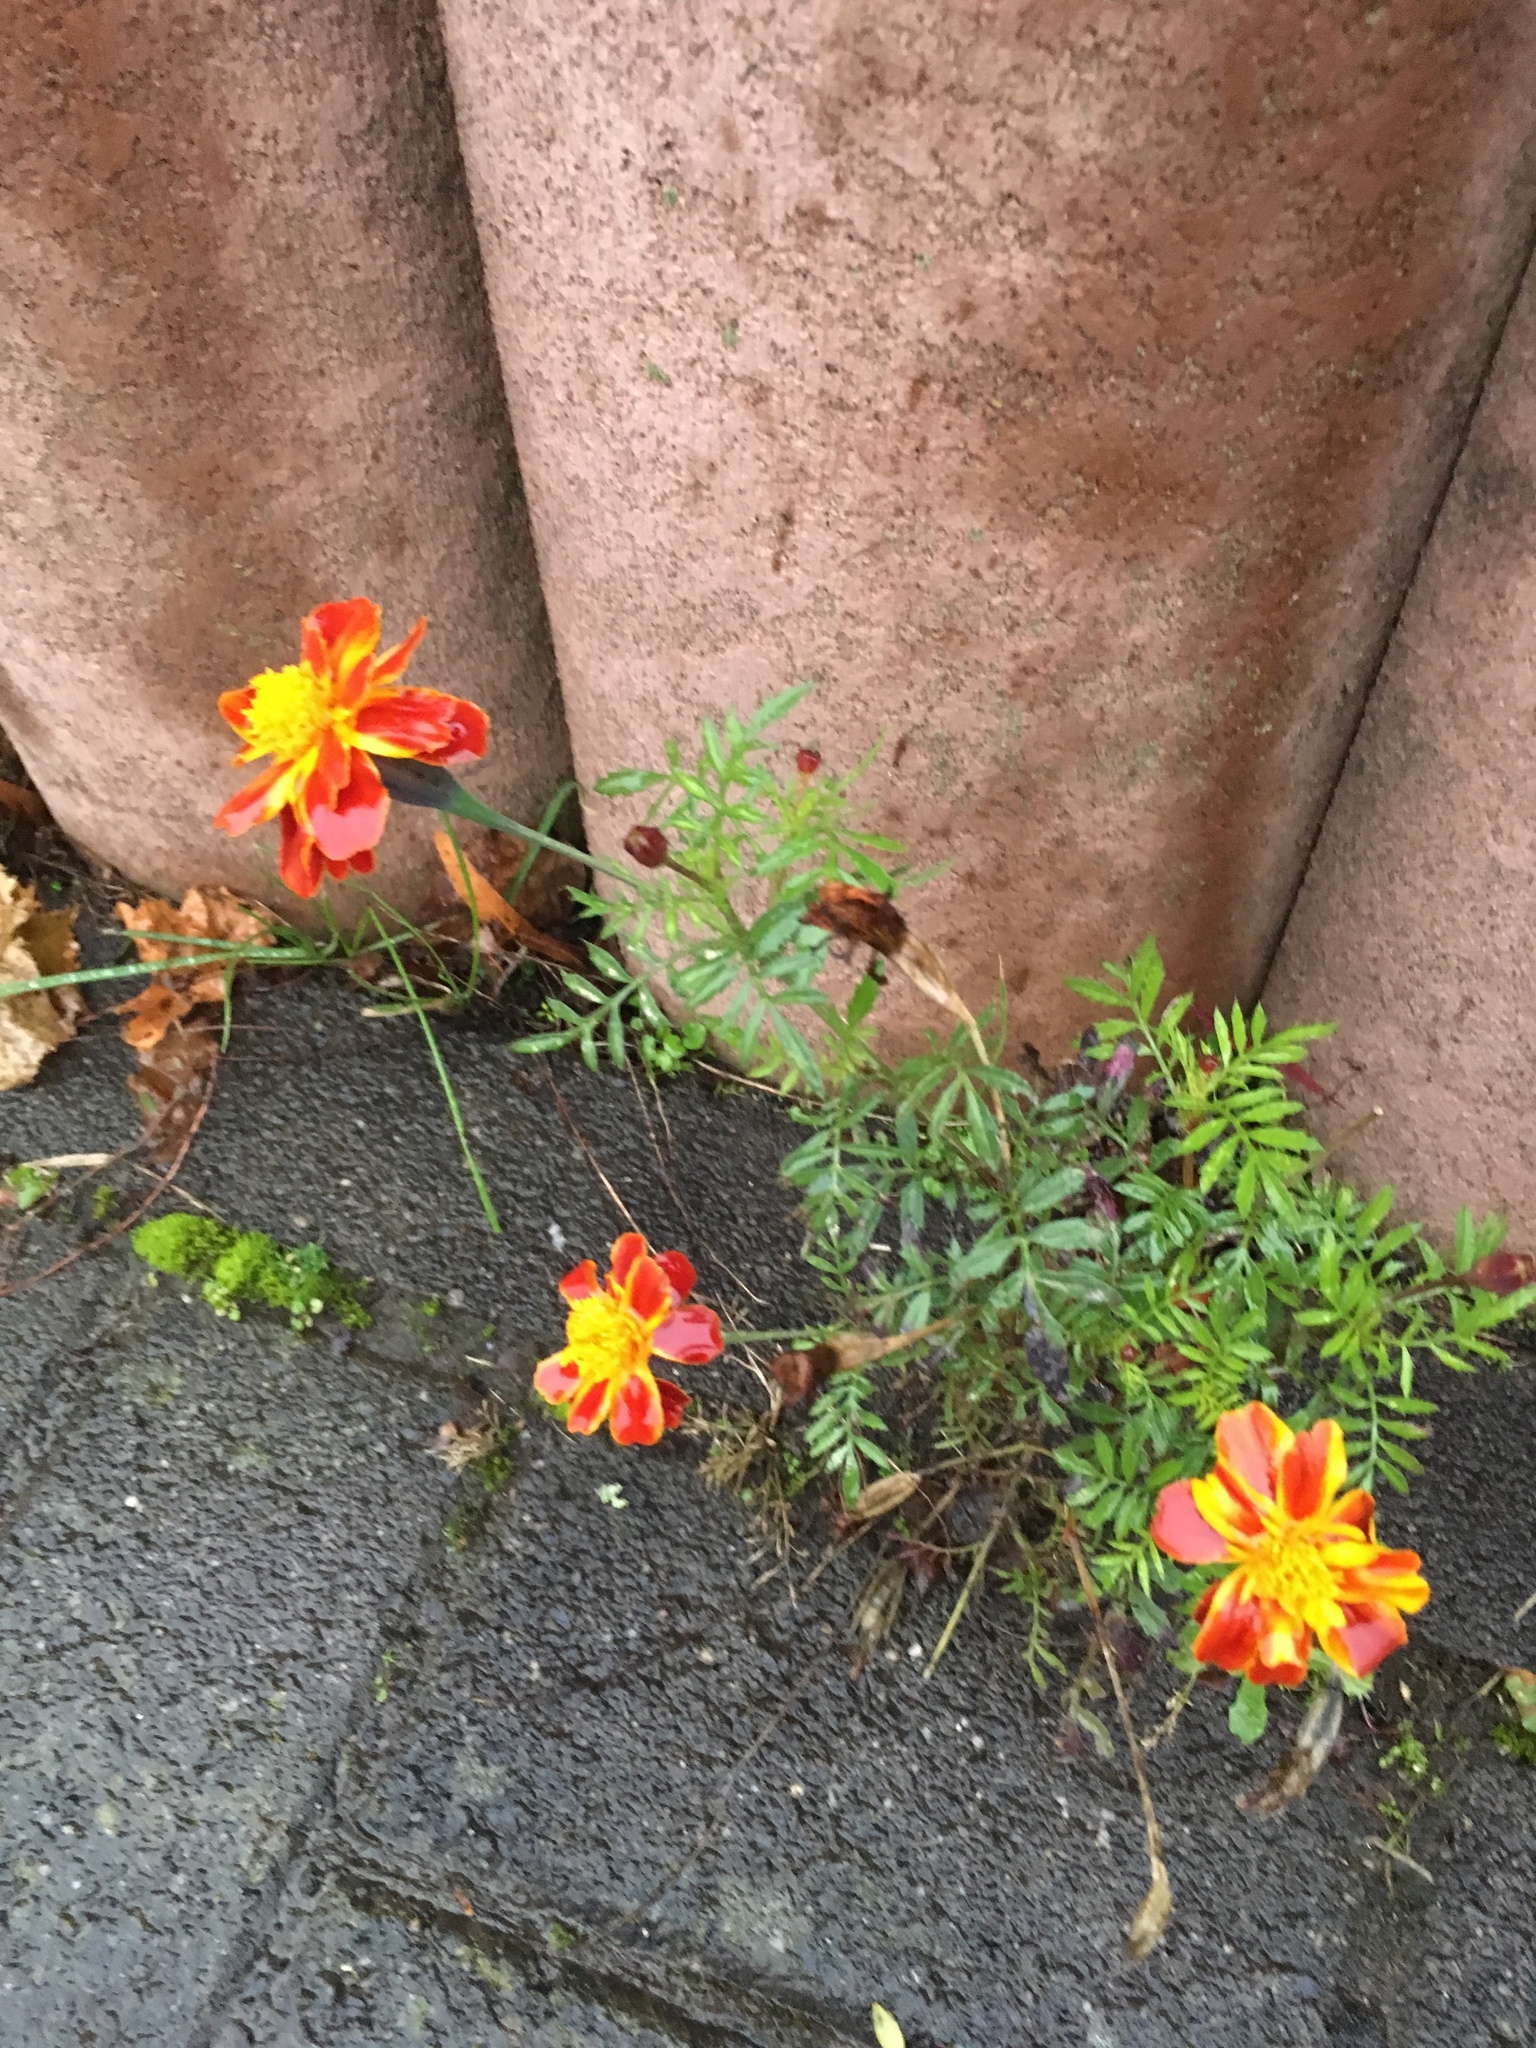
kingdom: Plantae
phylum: Tracheophyta
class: Magnoliopsida
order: Asterales
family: Asteraceae
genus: Tagetes
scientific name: Tagetes erecta
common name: African marigold
